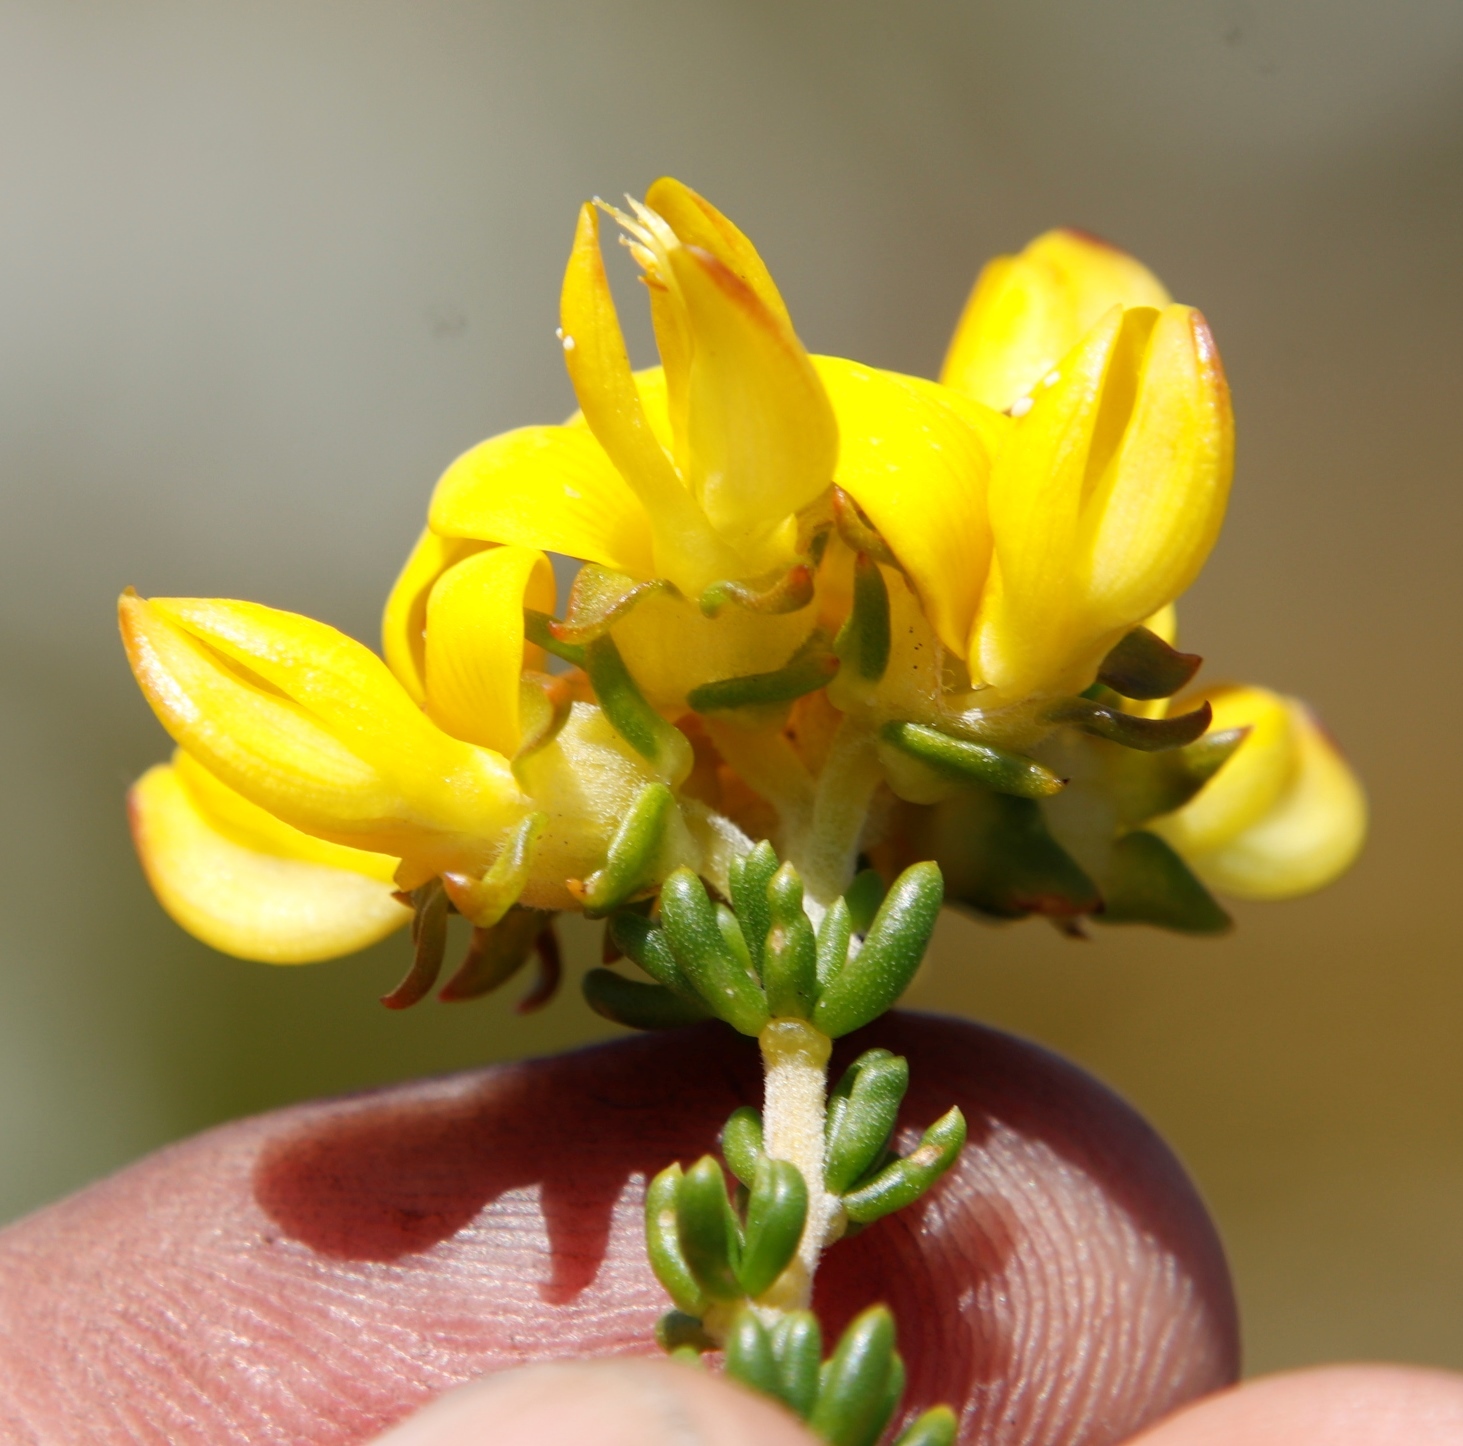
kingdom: Plantae
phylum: Tracheophyta
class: Magnoliopsida
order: Fabales
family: Fabaceae
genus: Aspalathus
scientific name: Aspalathus carnosa
